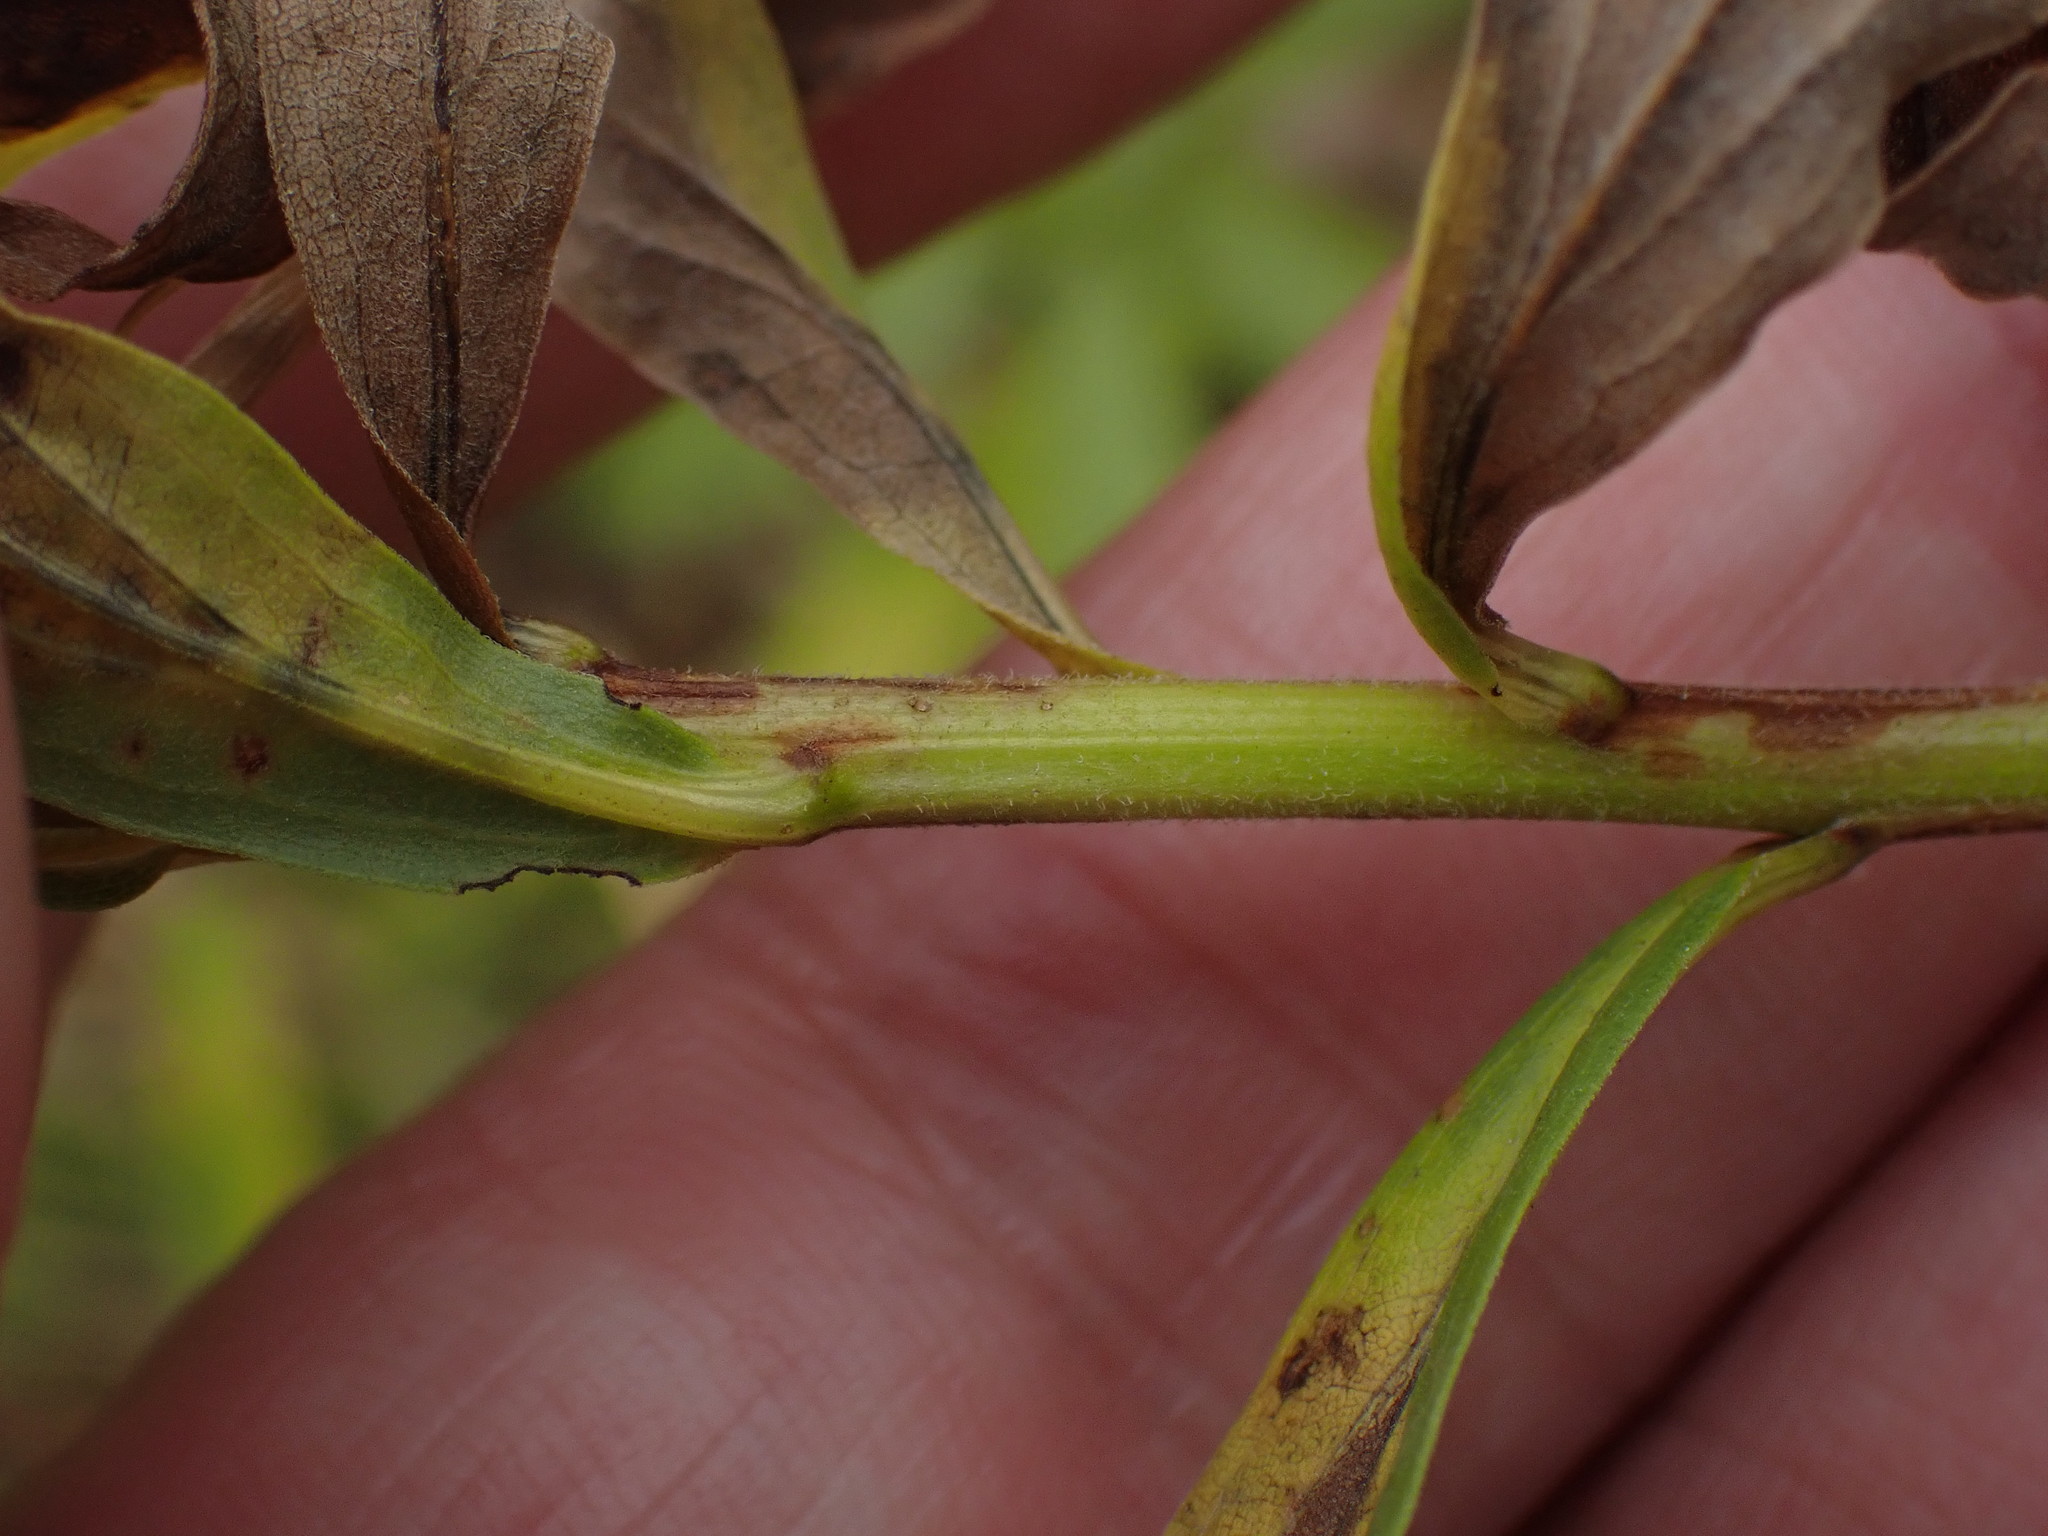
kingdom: Plantae
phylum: Tracheophyta
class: Magnoliopsida
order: Asterales
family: Asteraceae
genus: Solidago
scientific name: Solidago canadensis
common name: Canada goldenrod
